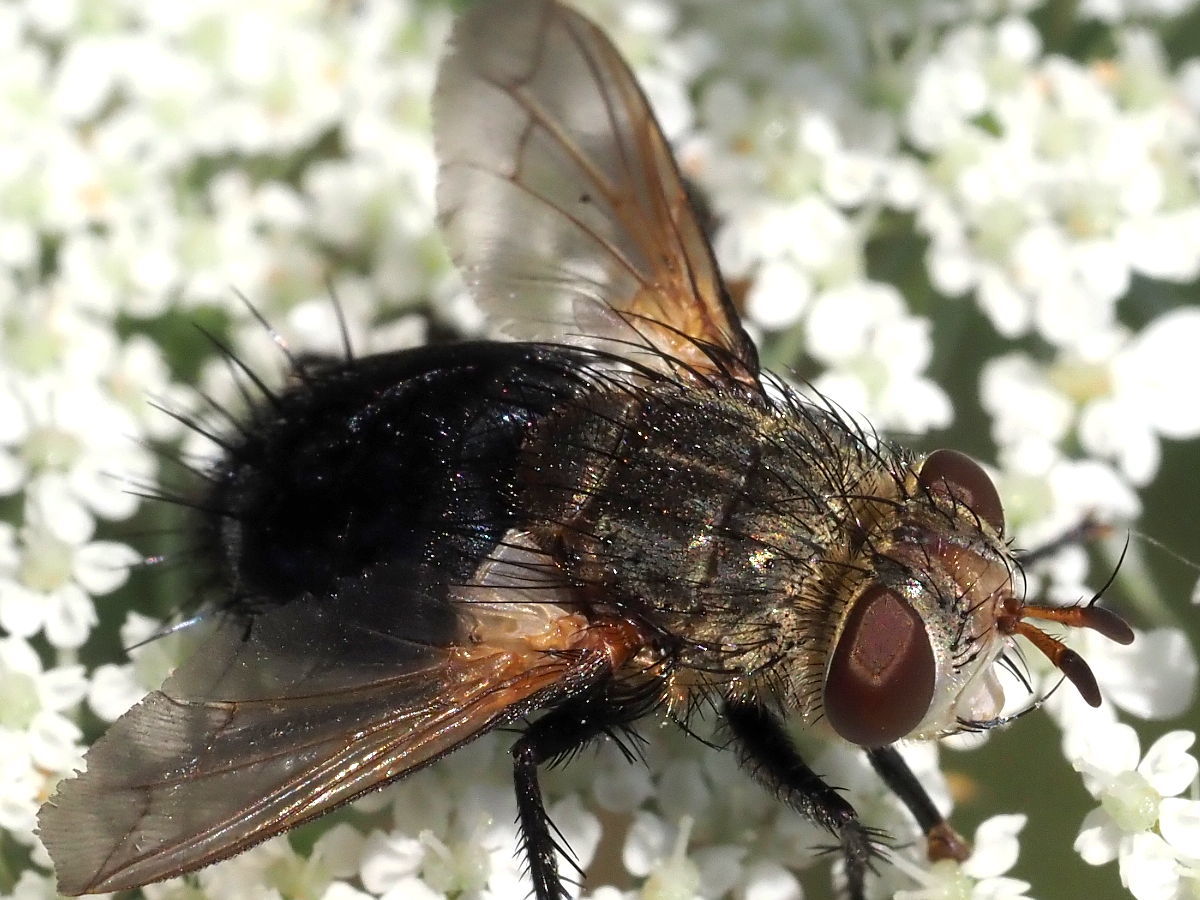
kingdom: Animalia
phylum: Arthropoda
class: Insecta
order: Diptera
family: Tachinidae
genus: Archytas
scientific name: Archytas
